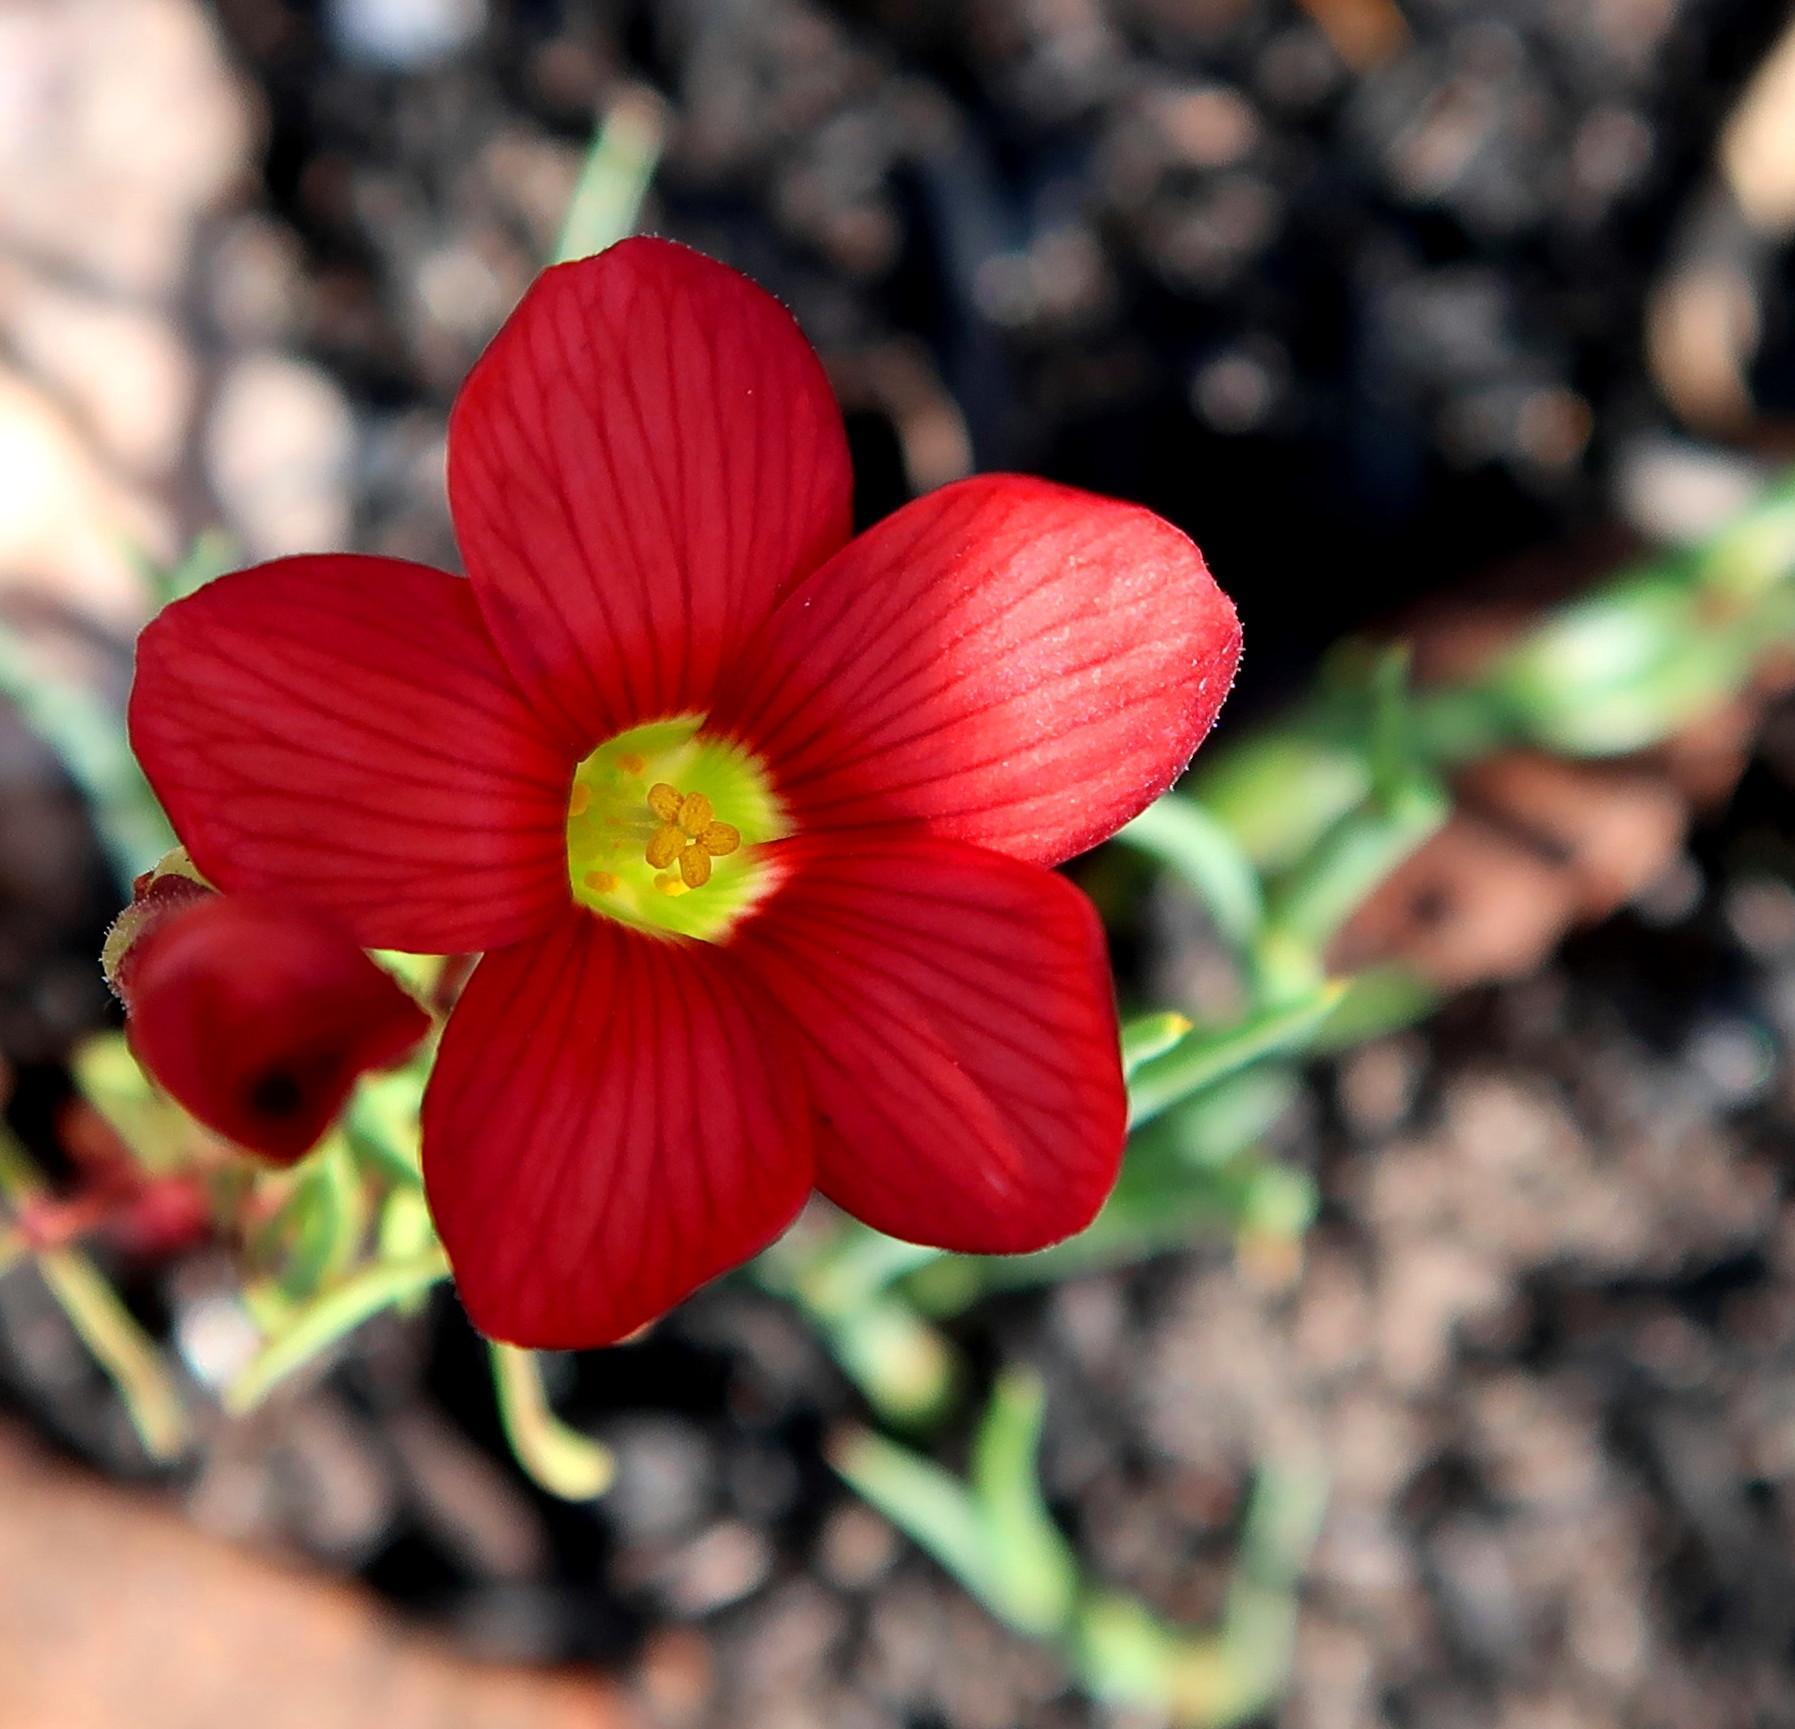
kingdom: Plantae
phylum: Tracheophyta
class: Magnoliopsida
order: Oxalidales
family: Oxalidaceae
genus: Oxalis
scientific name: Oxalis pendulifolia
